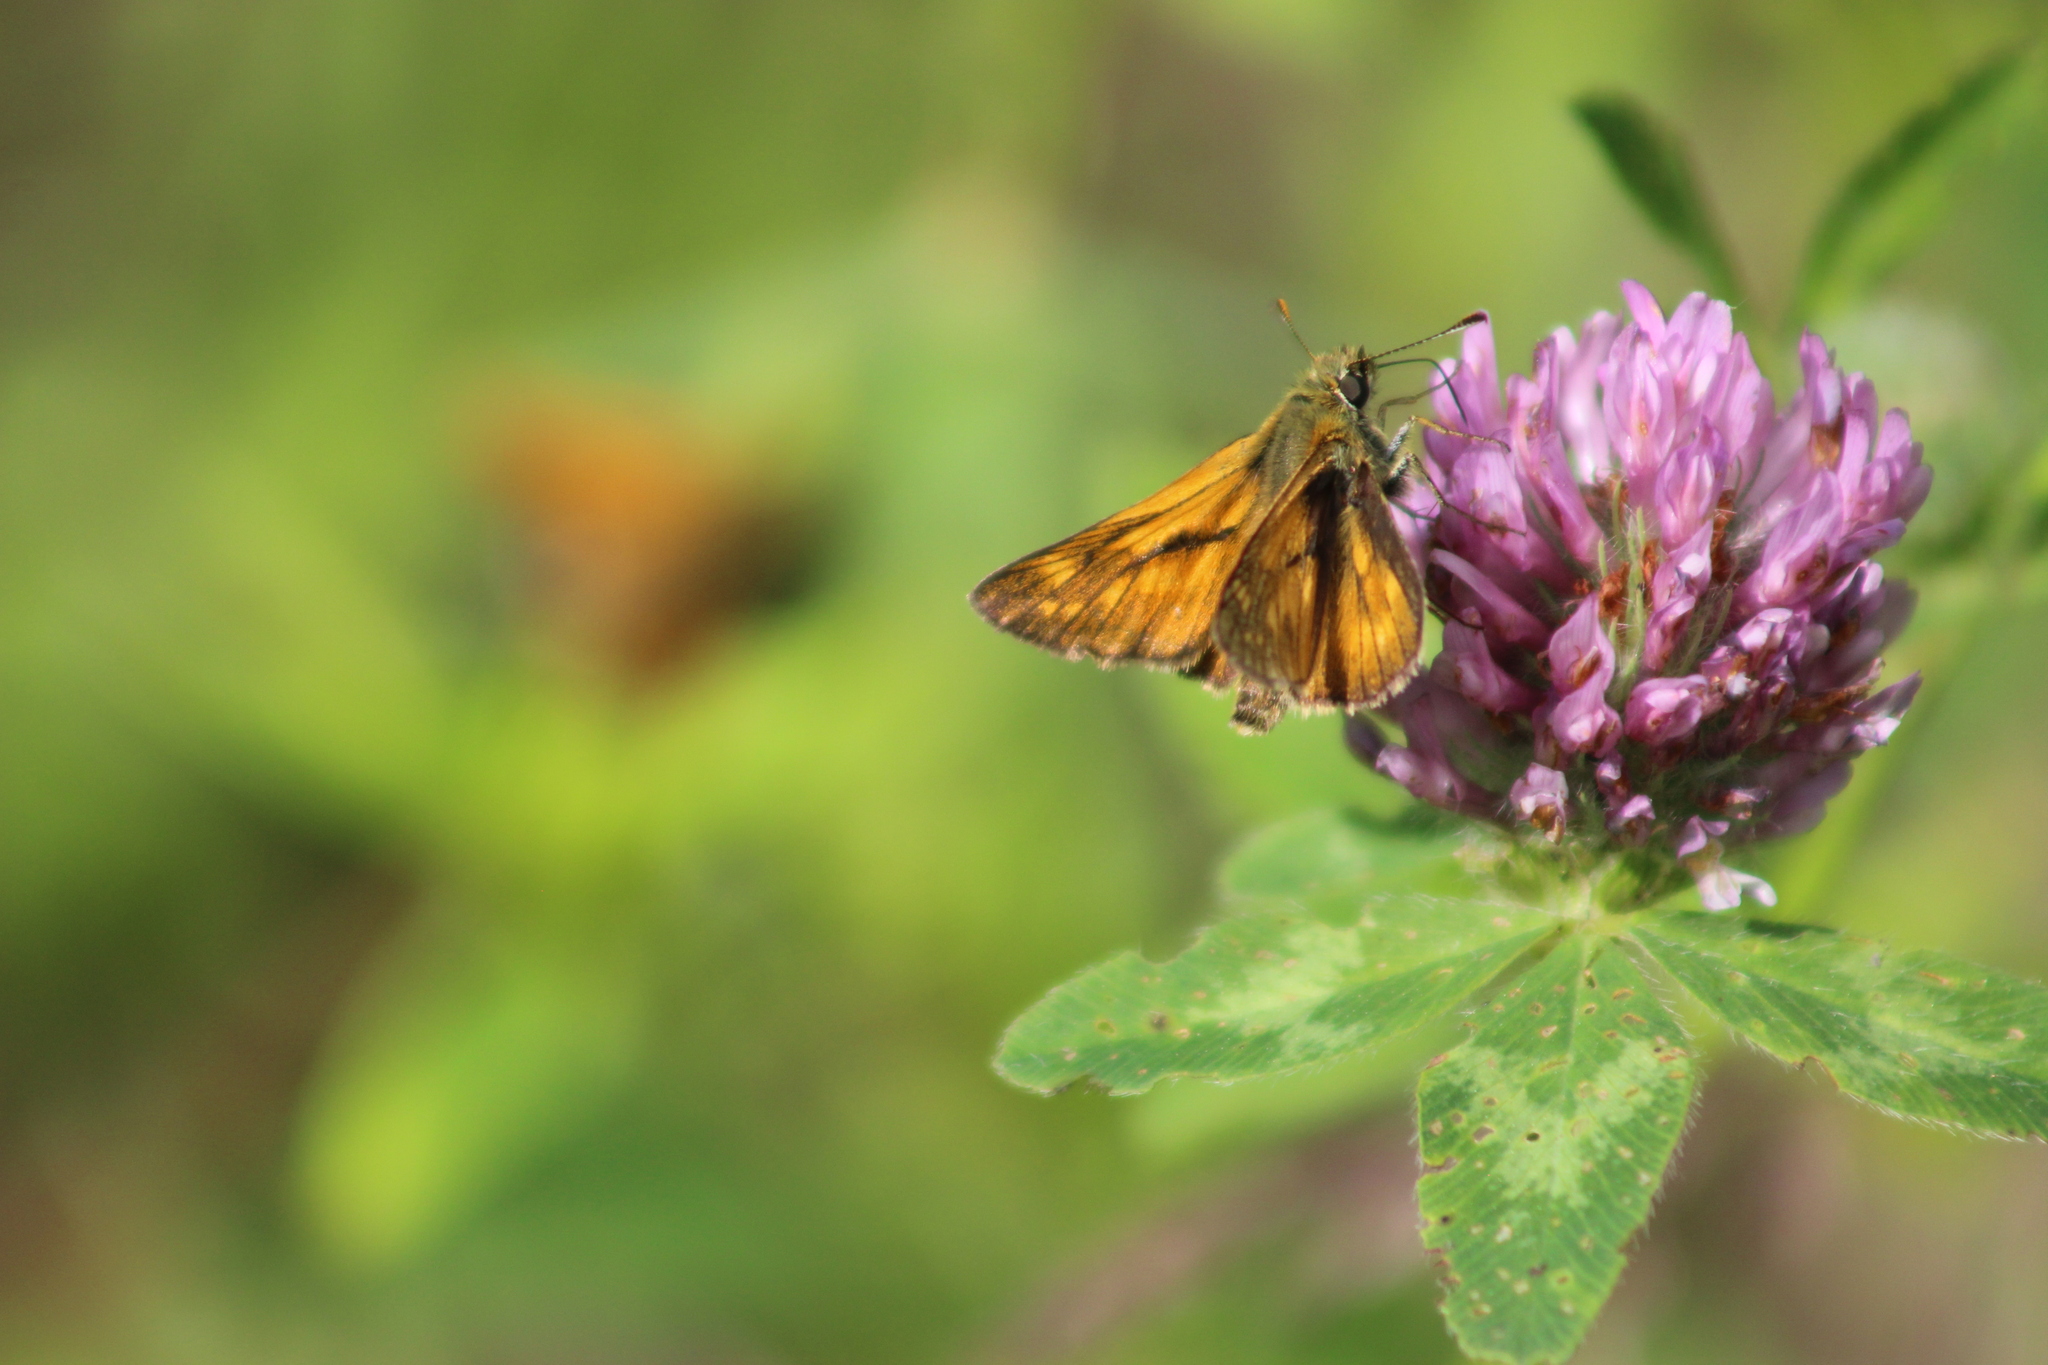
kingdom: Animalia
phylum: Arthropoda
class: Insecta
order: Lepidoptera
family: Hesperiidae
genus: Ochlodes
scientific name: Ochlodes venata
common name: Large skipper
